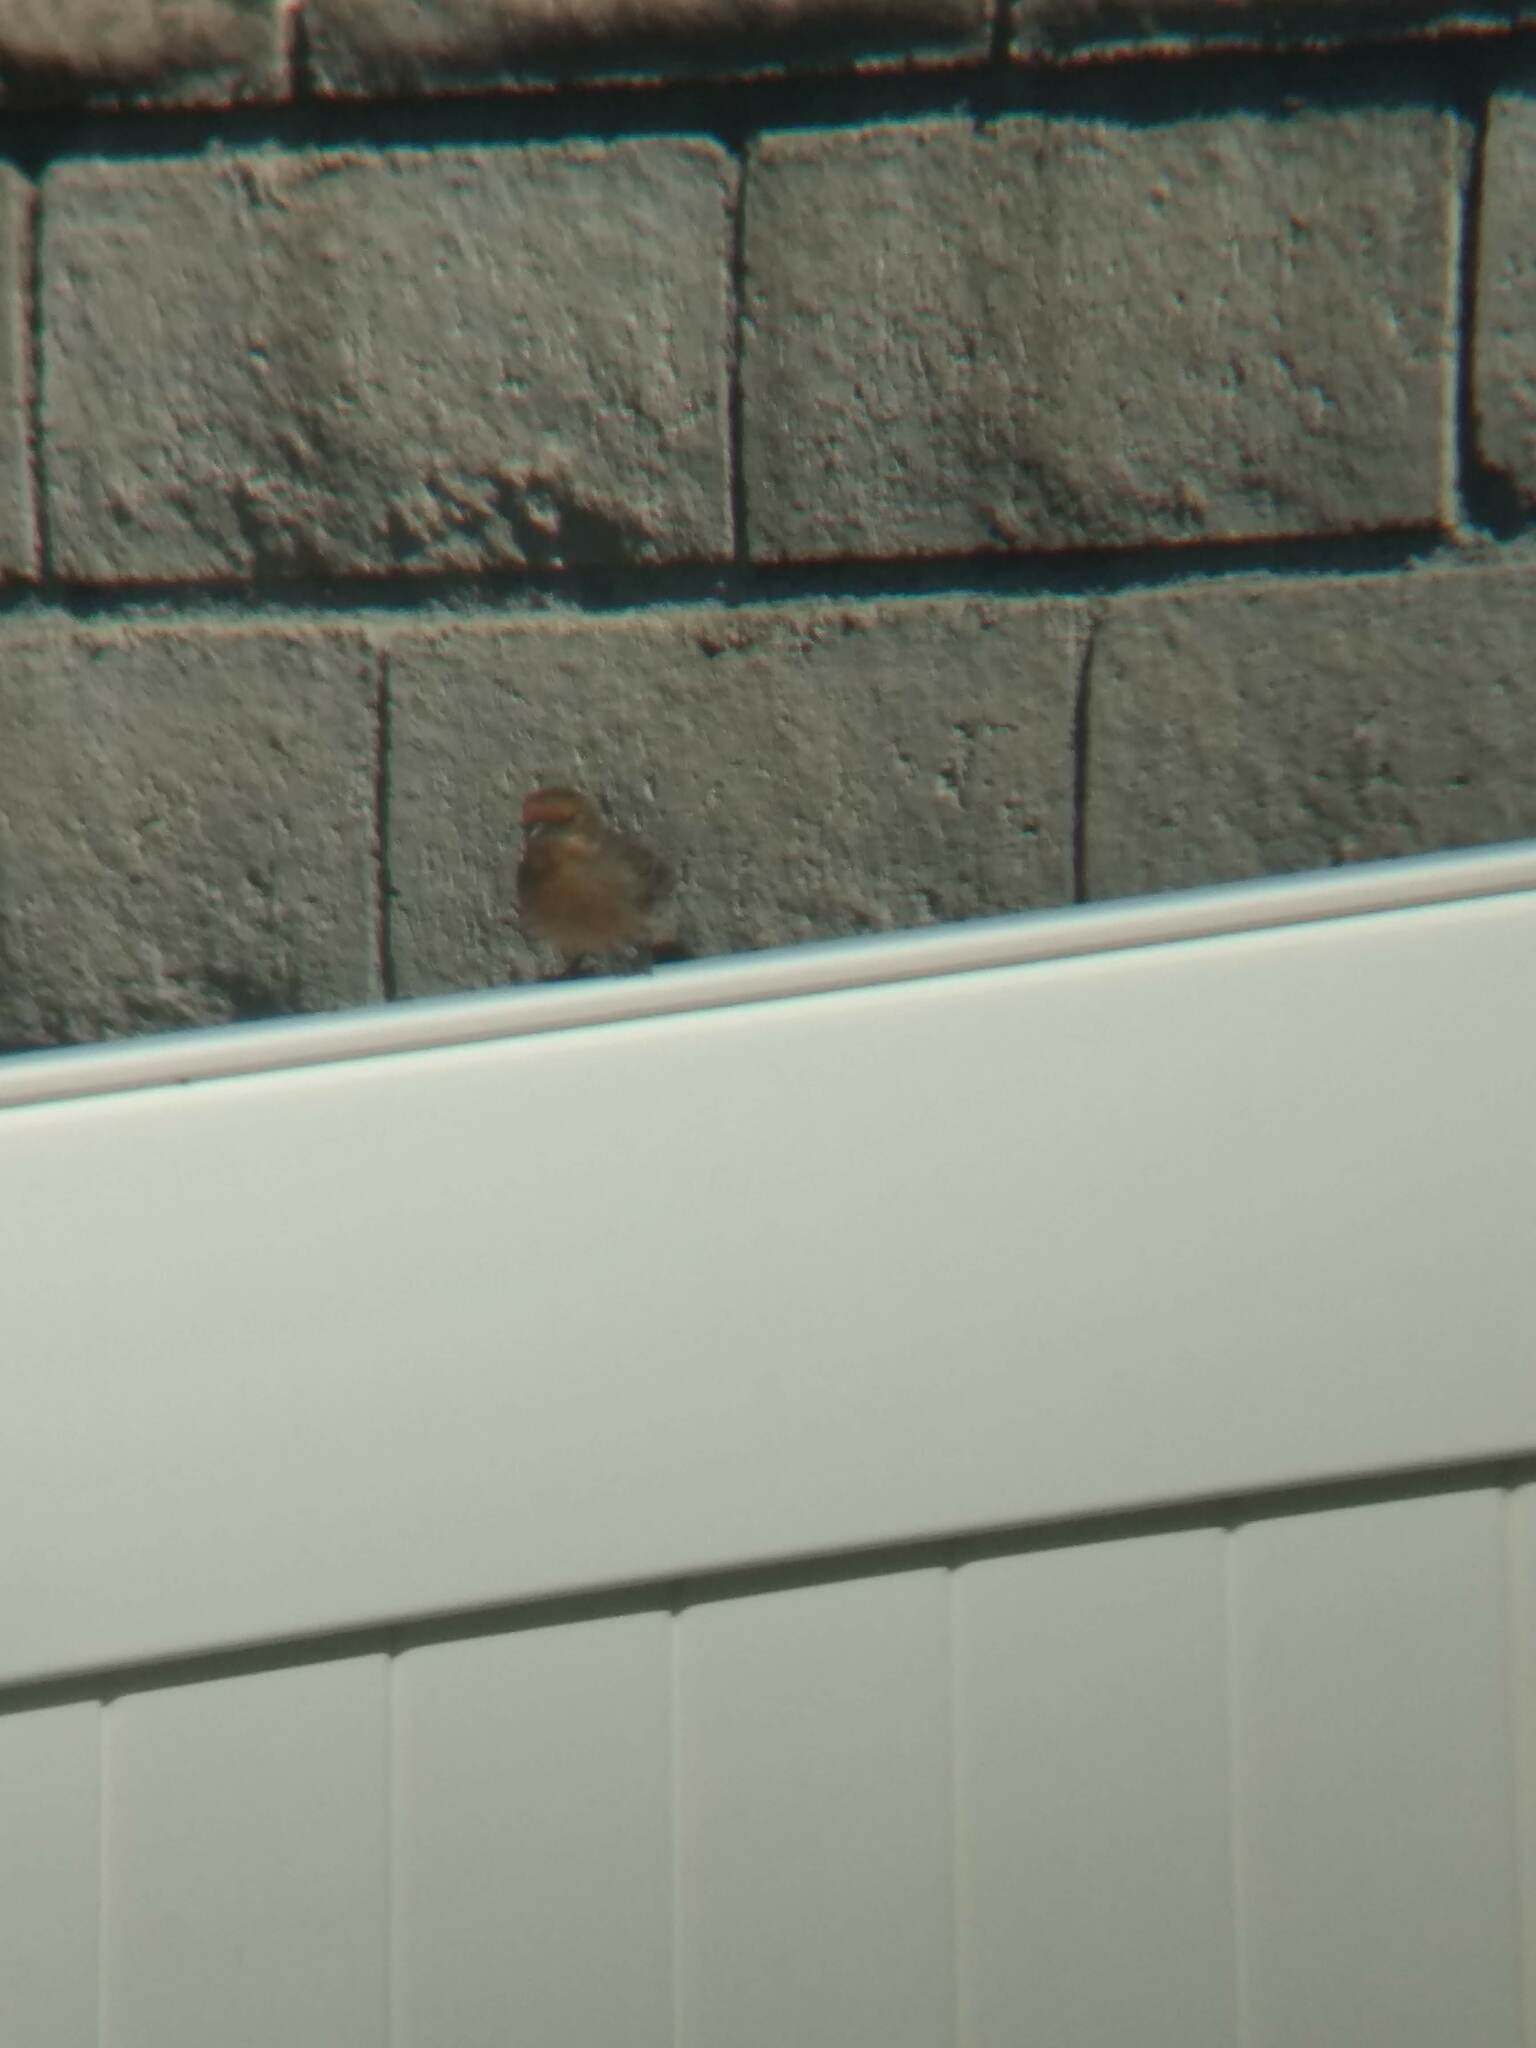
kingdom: Animalia
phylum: Chordata
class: Aves
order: Passeriformes
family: Fringillidae
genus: Haemorhous
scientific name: Haemorhous mexicanus
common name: House finch
